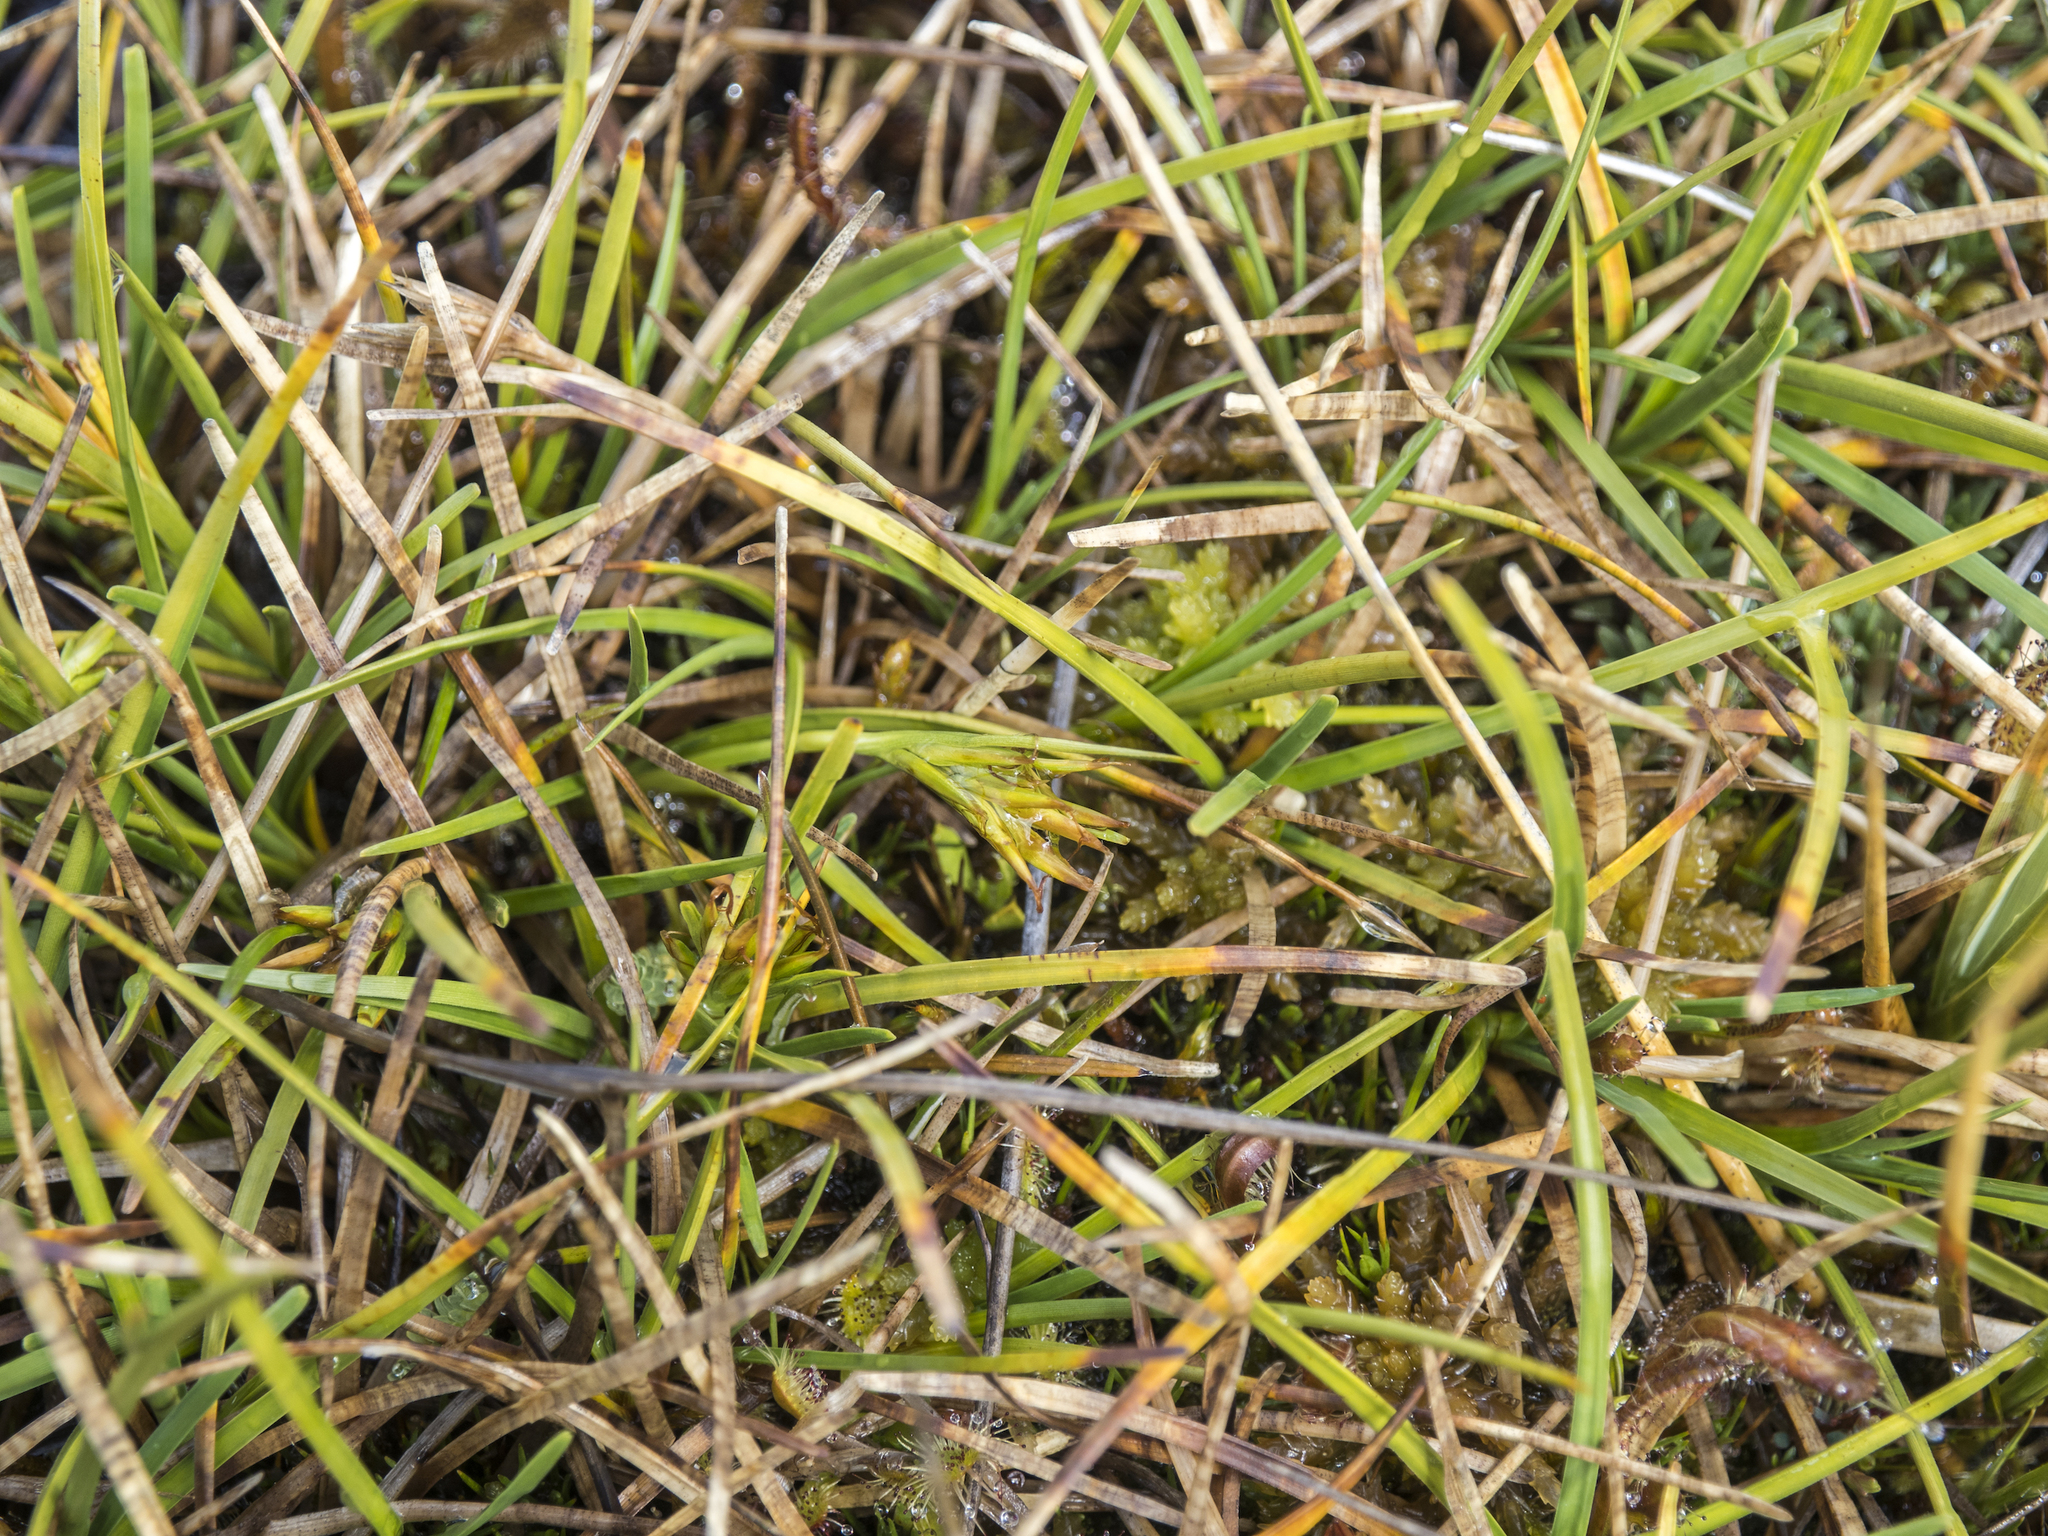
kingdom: Plantae
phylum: Tracheophyta
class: Liliopsida
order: Poales
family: Cyperaceae
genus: Carpha
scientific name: Carpha alpina
